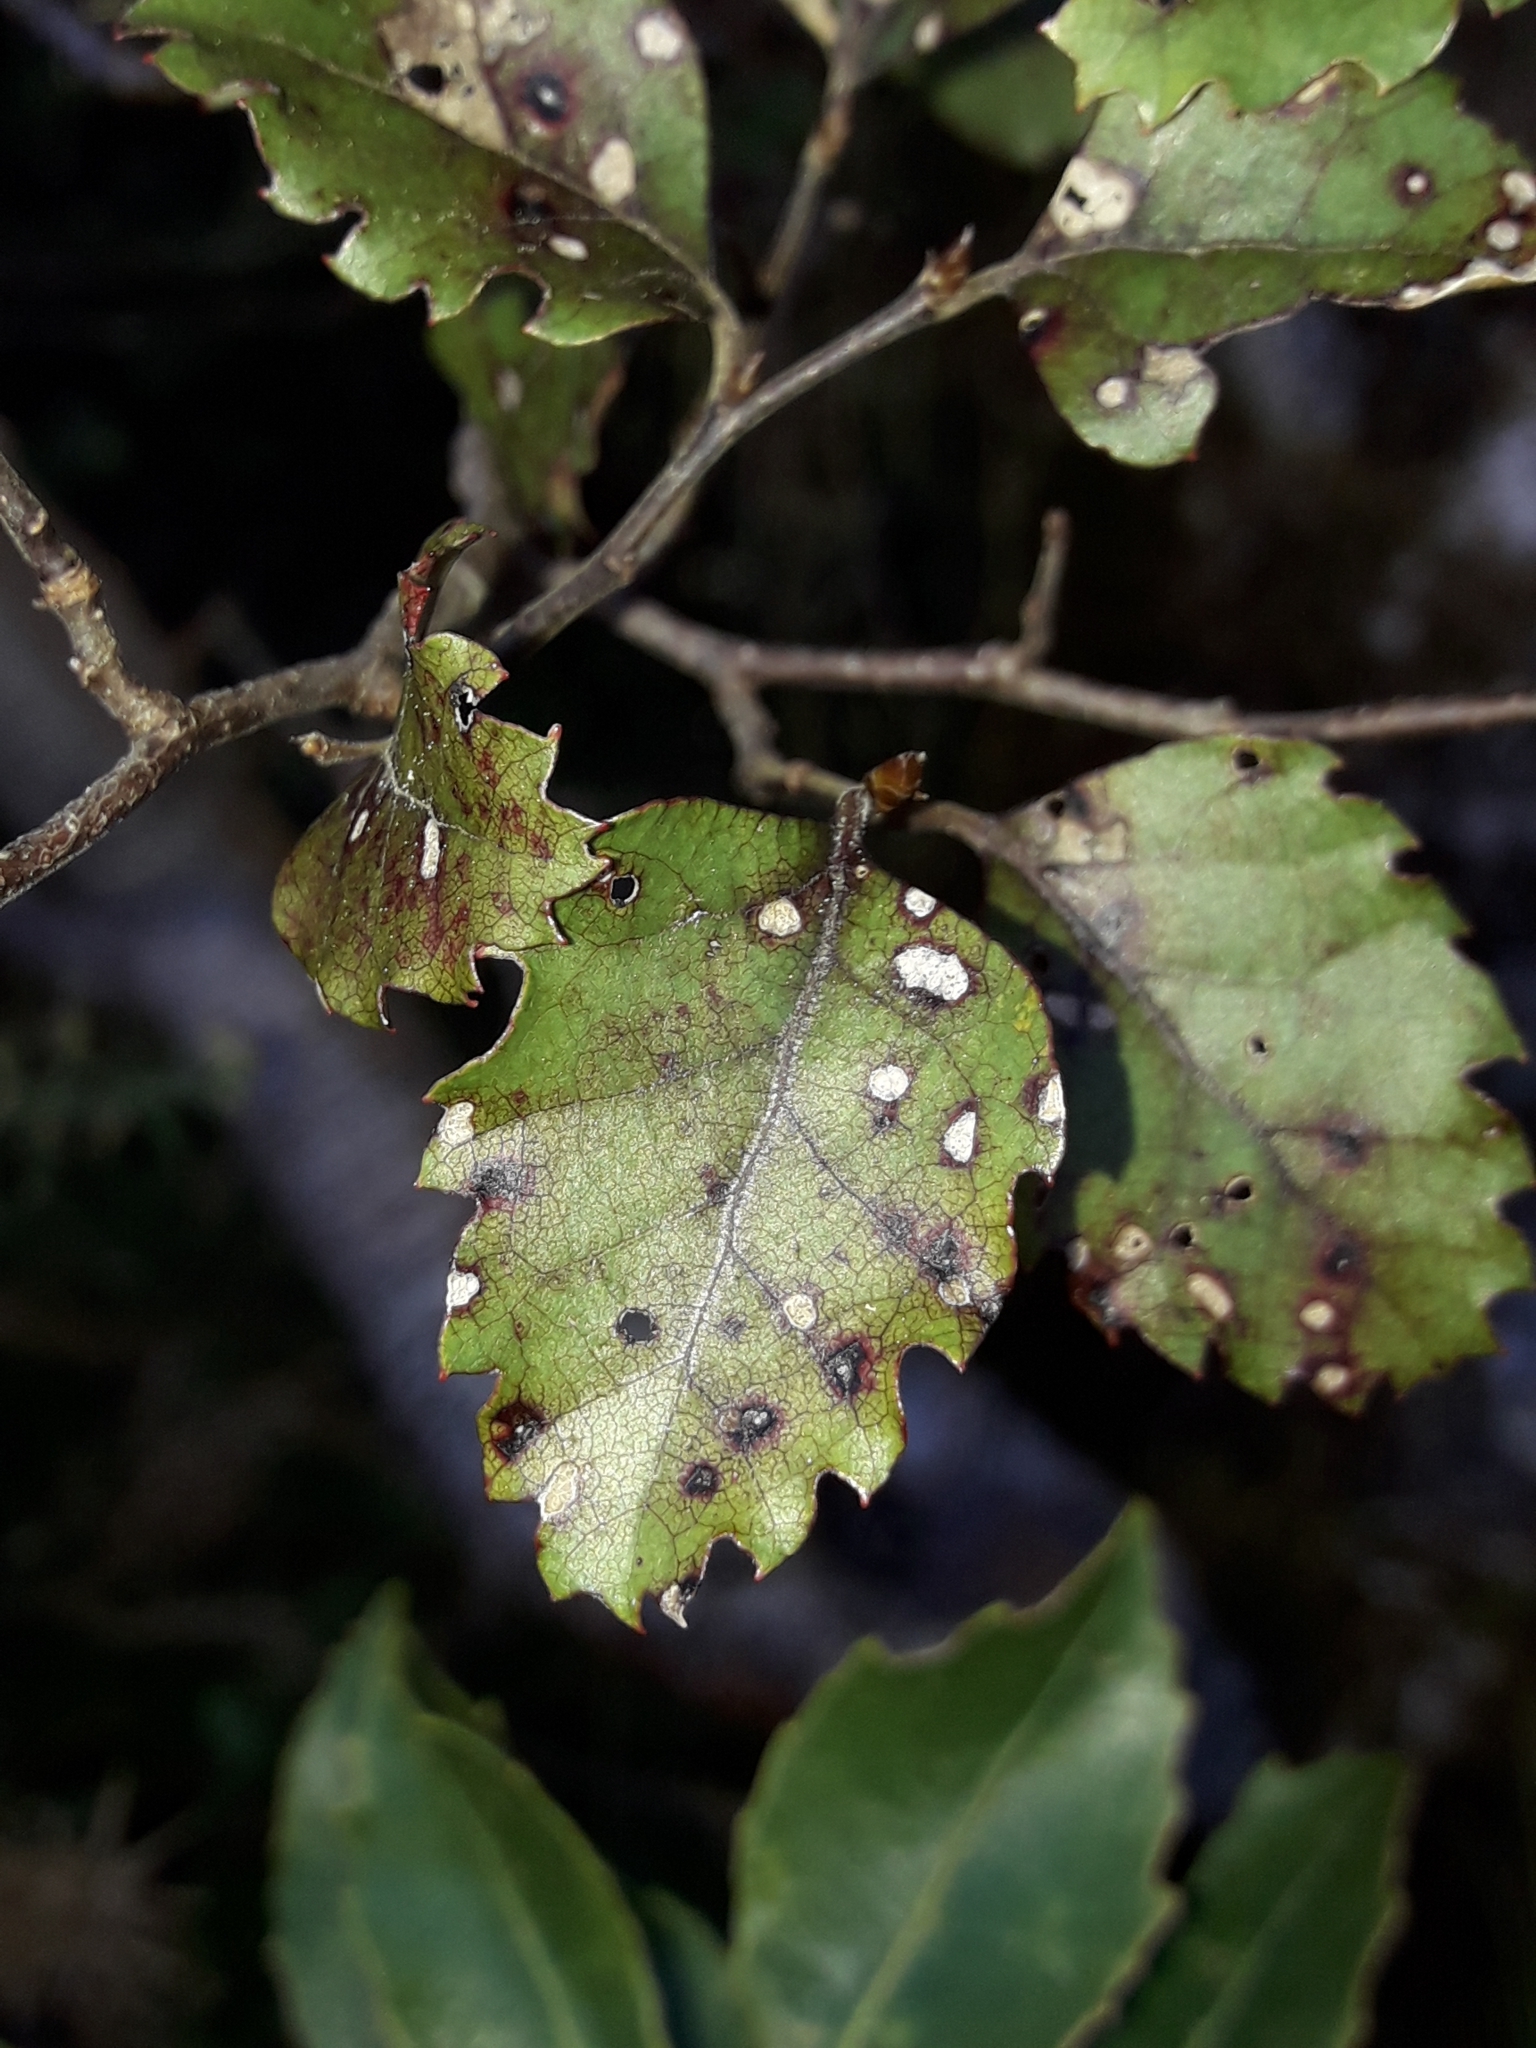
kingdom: Plantae
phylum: Tracheophyta
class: Magnoliopsida
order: Fagales
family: Nothofagaceae
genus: Nothofagus
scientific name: Nothofagus fusca
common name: Red beech
